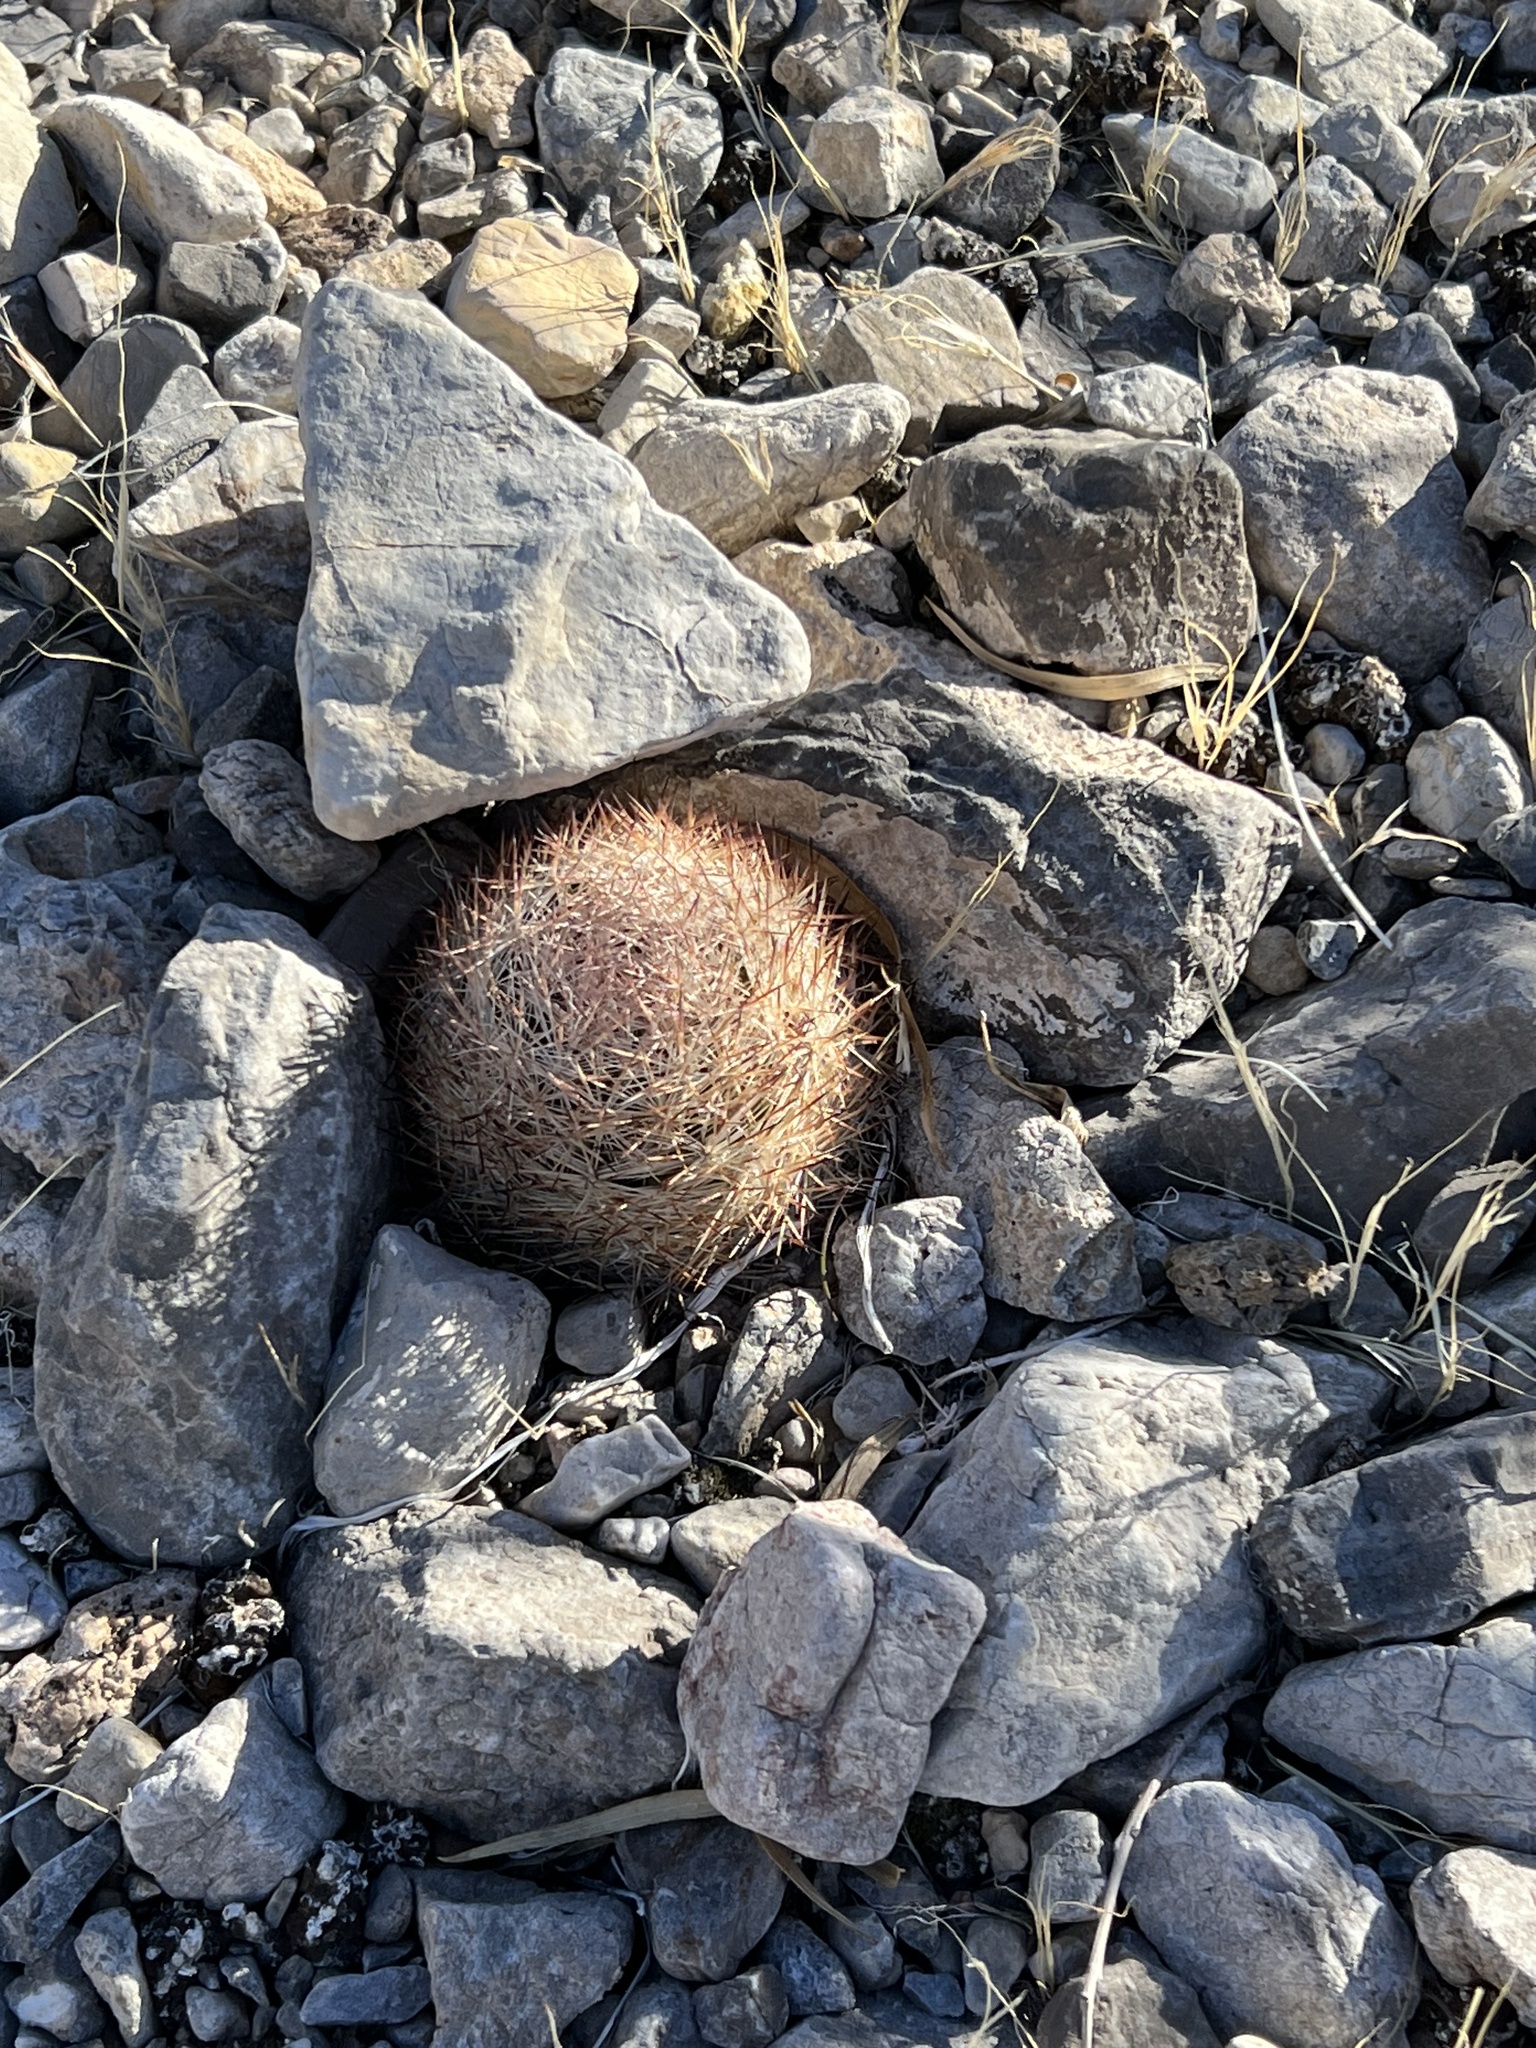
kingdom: Plantae
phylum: Tracheophyta
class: Magnoliopsida
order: Caryophyllales
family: Cactaceae
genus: Pelecyphora
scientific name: Pelecyphora dasyacantha
